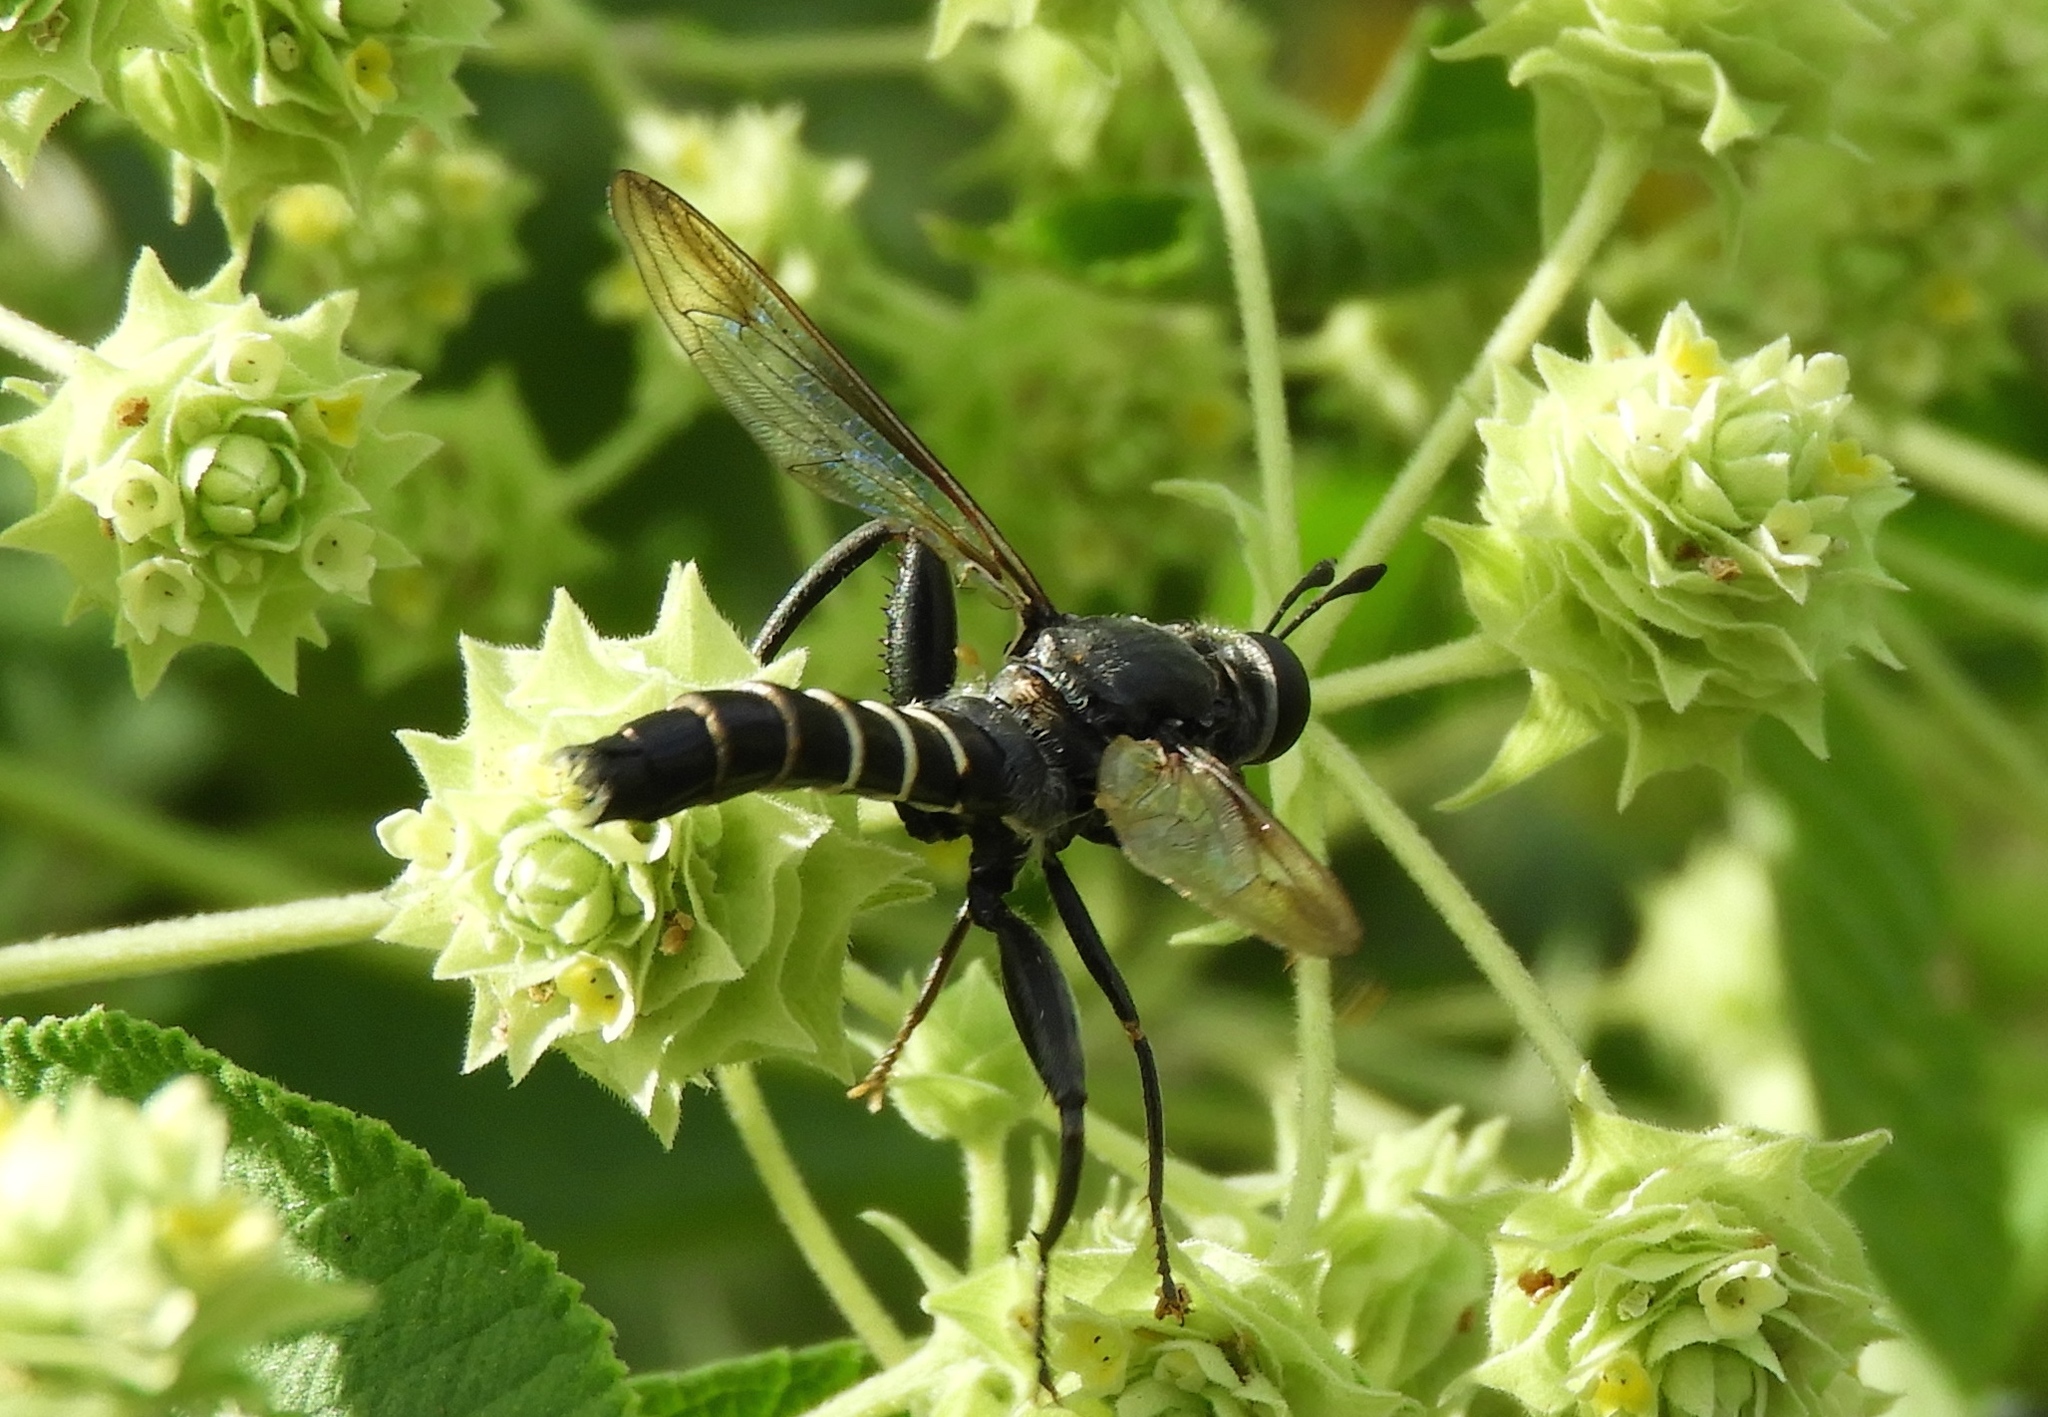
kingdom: Animalia
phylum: Arthropoda
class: Insecta
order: Diptera
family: Mydidae
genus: Mydas
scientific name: Mydas
